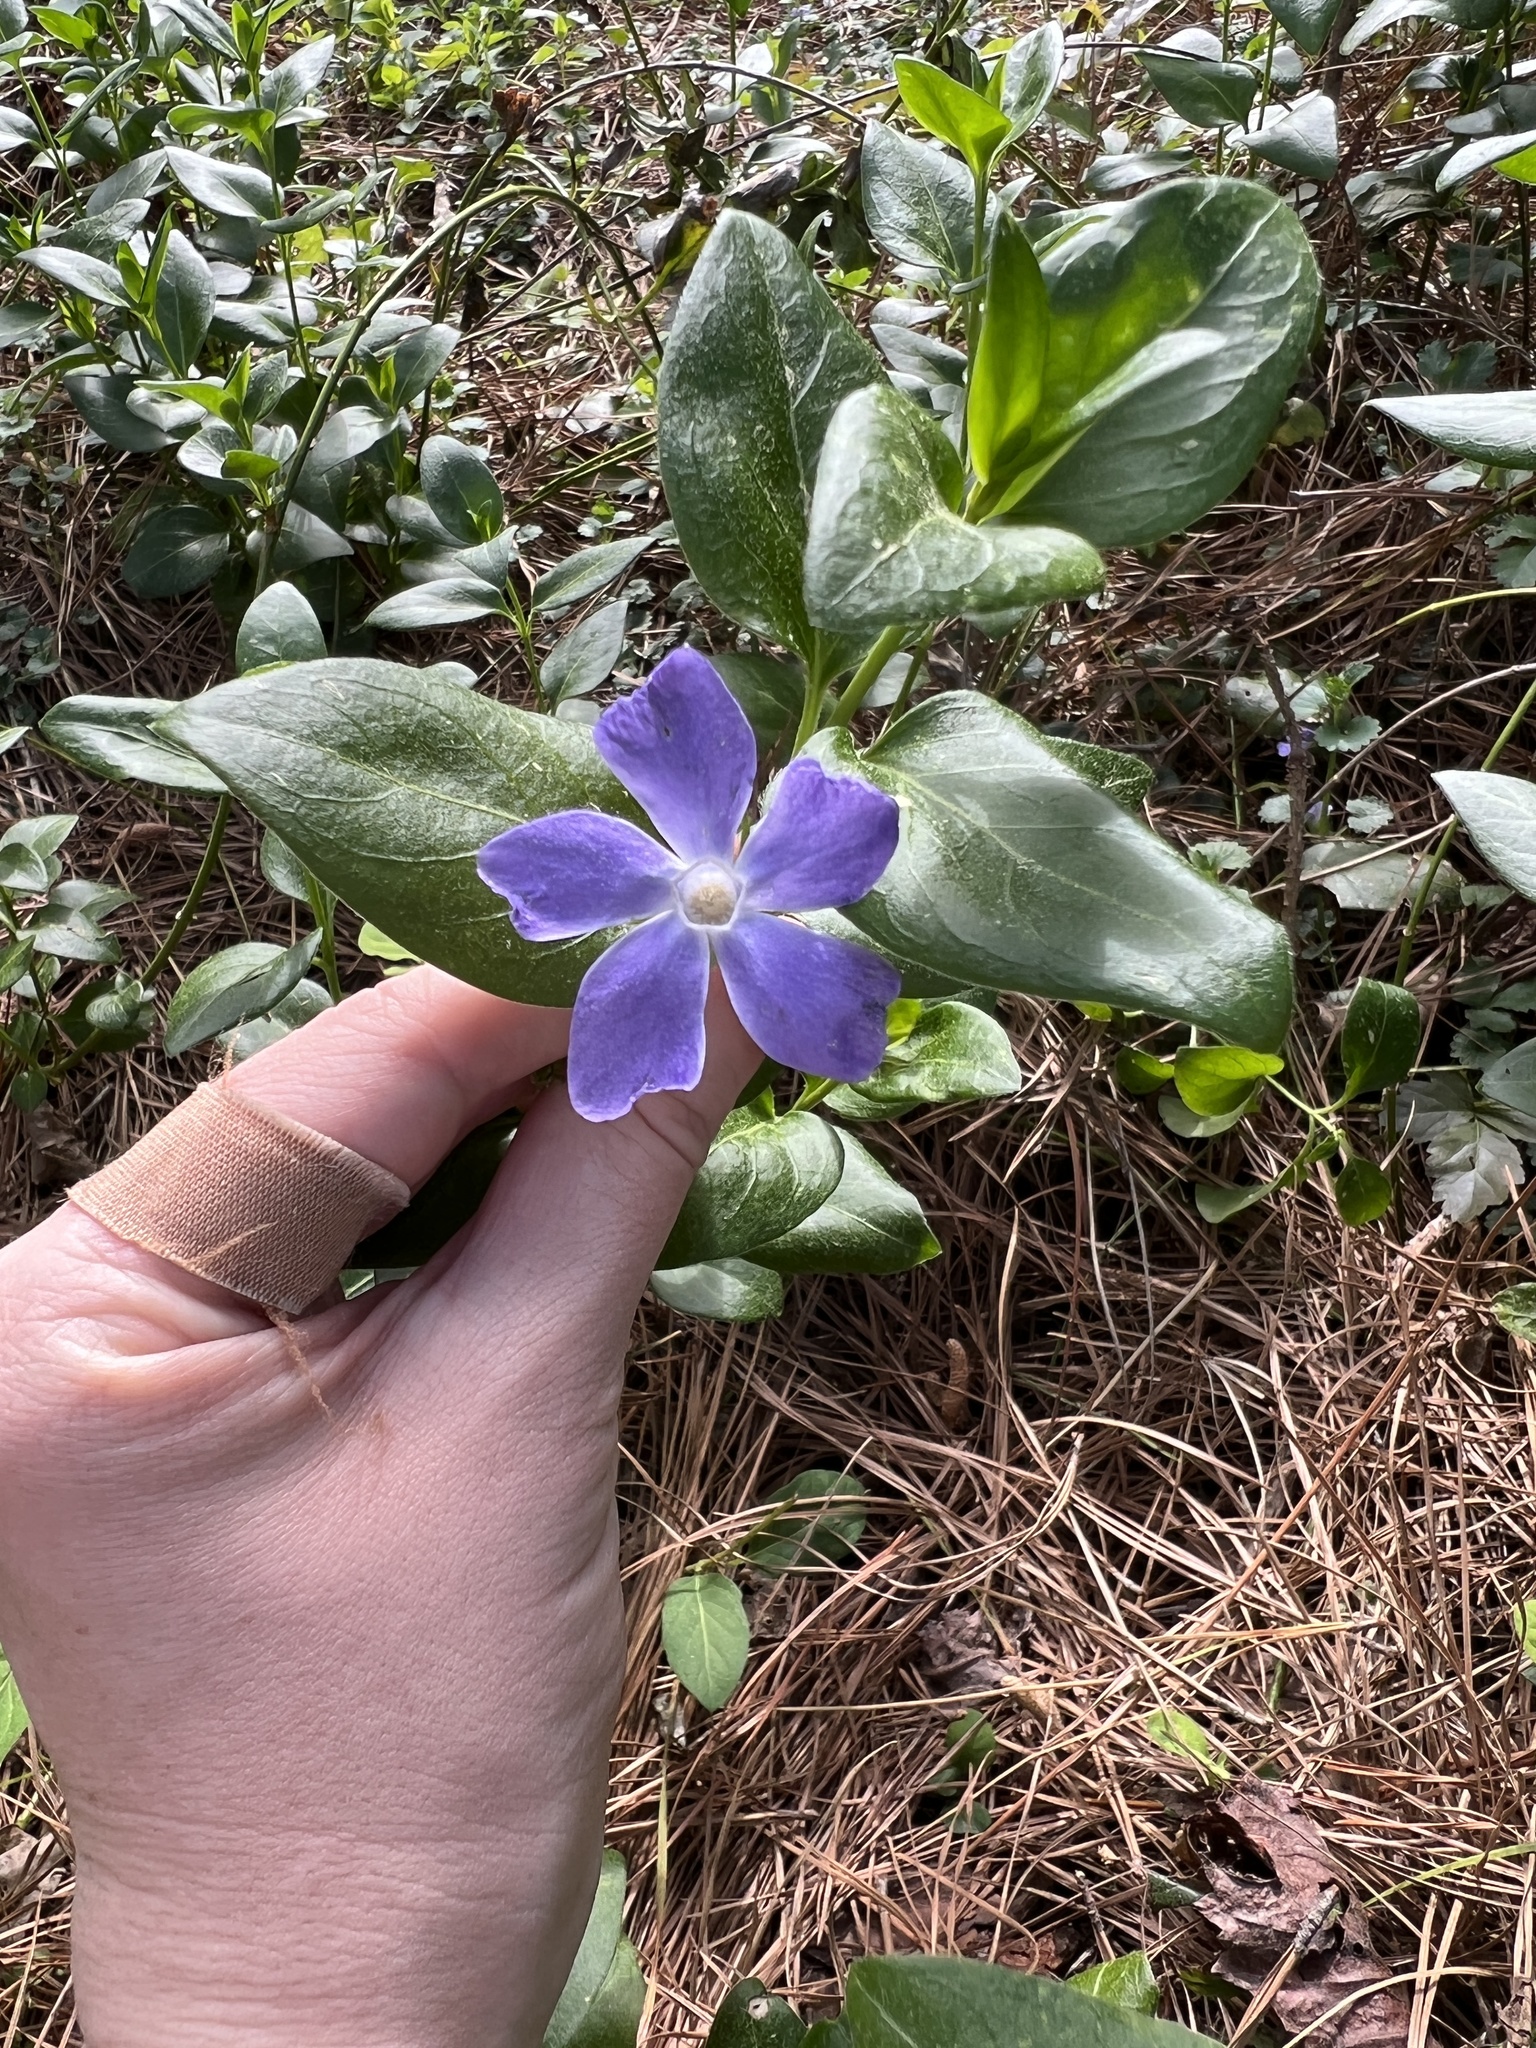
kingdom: Plantae
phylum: Tracheophyta
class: Magnoliopsida
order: Gentianales
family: Apocynaceae
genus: Vinca
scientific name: Vinca major
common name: Greater periwinkle
